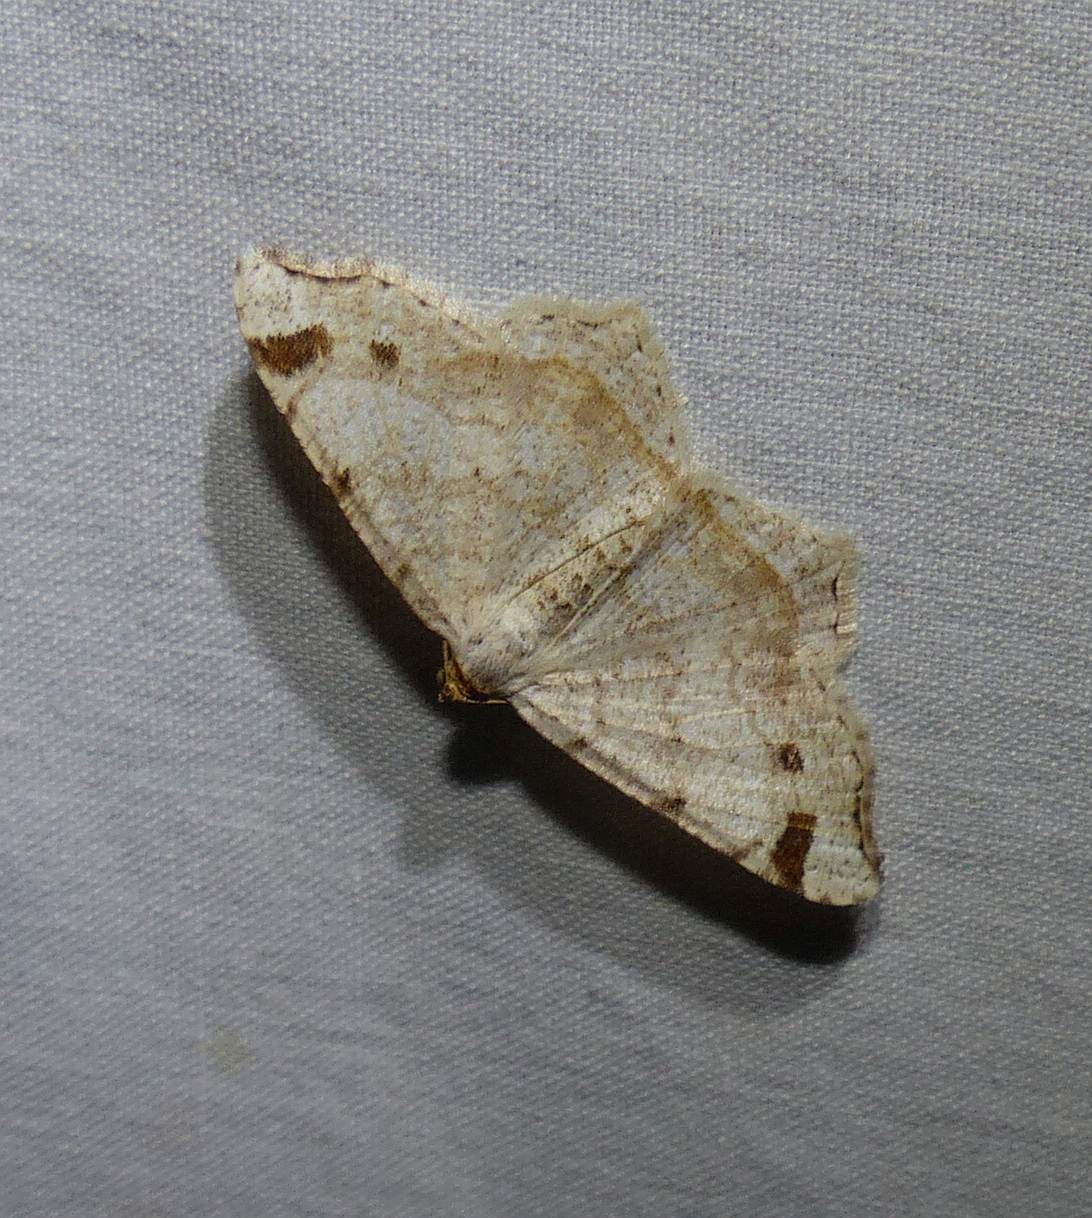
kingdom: Animalia
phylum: Arthropoda
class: Insecta
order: Lepidoptera
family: Geometridae
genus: Macaria
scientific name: Macaria bisignata
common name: Red-headed inchworm
